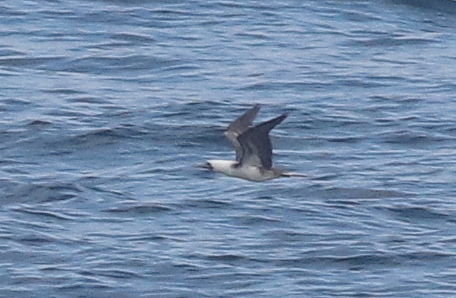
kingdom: Animalia
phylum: Chordata
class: Aves
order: Suliformes
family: Sulidae
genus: Sula
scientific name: Sula variegata
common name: Peruvian booby
